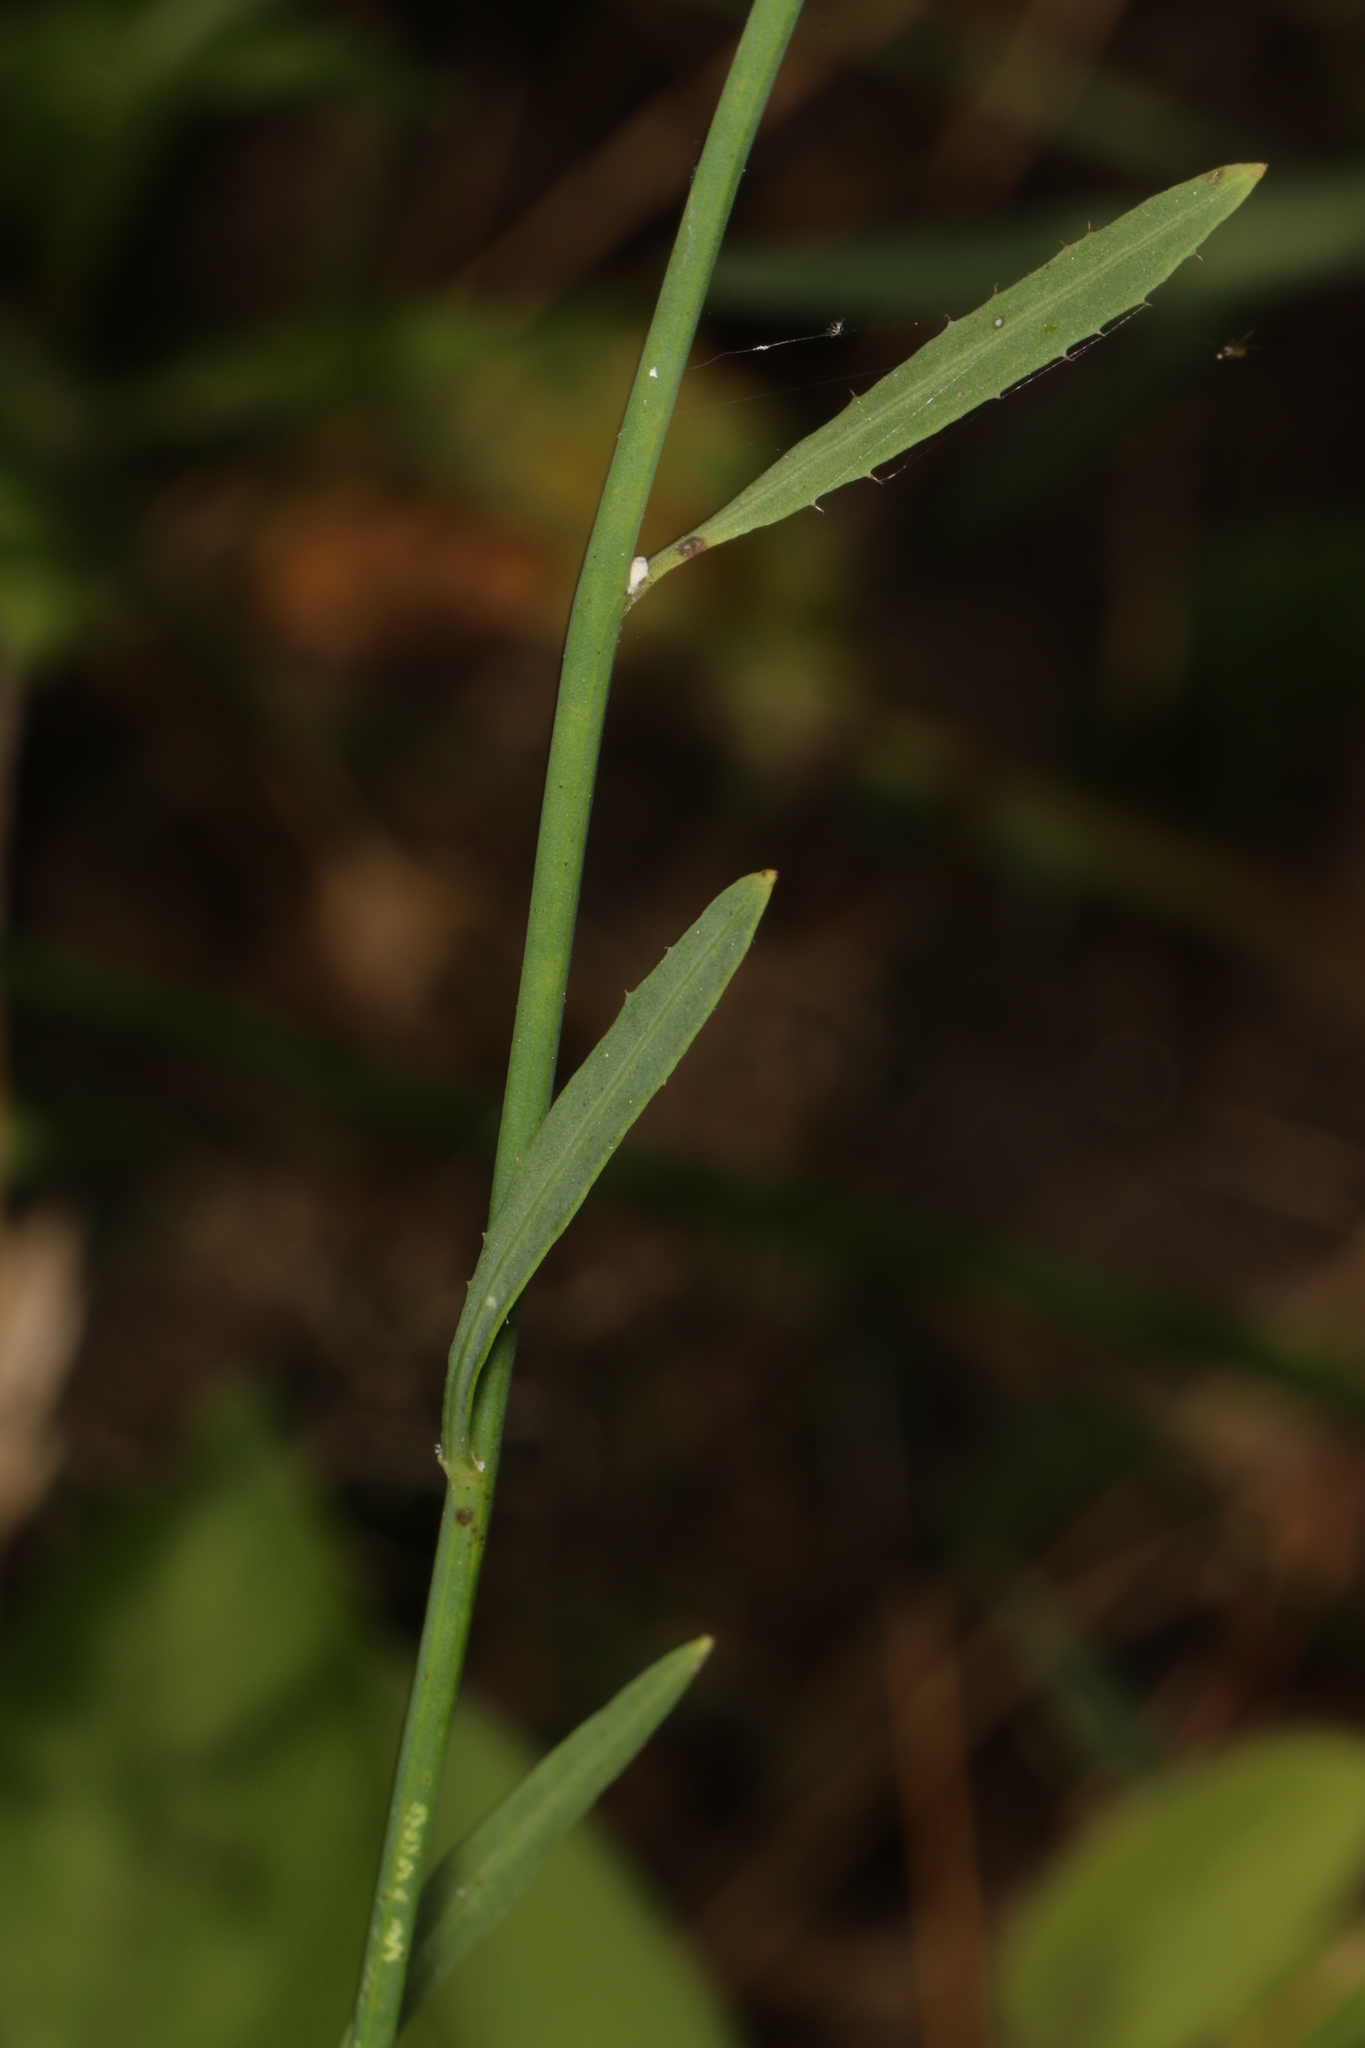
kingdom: Plantae
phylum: Tracheophyta
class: Magnoliopsida
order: Asterales
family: Asteraceae
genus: Chondrilla
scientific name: Chondrilla juncea
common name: Skeleton weed
